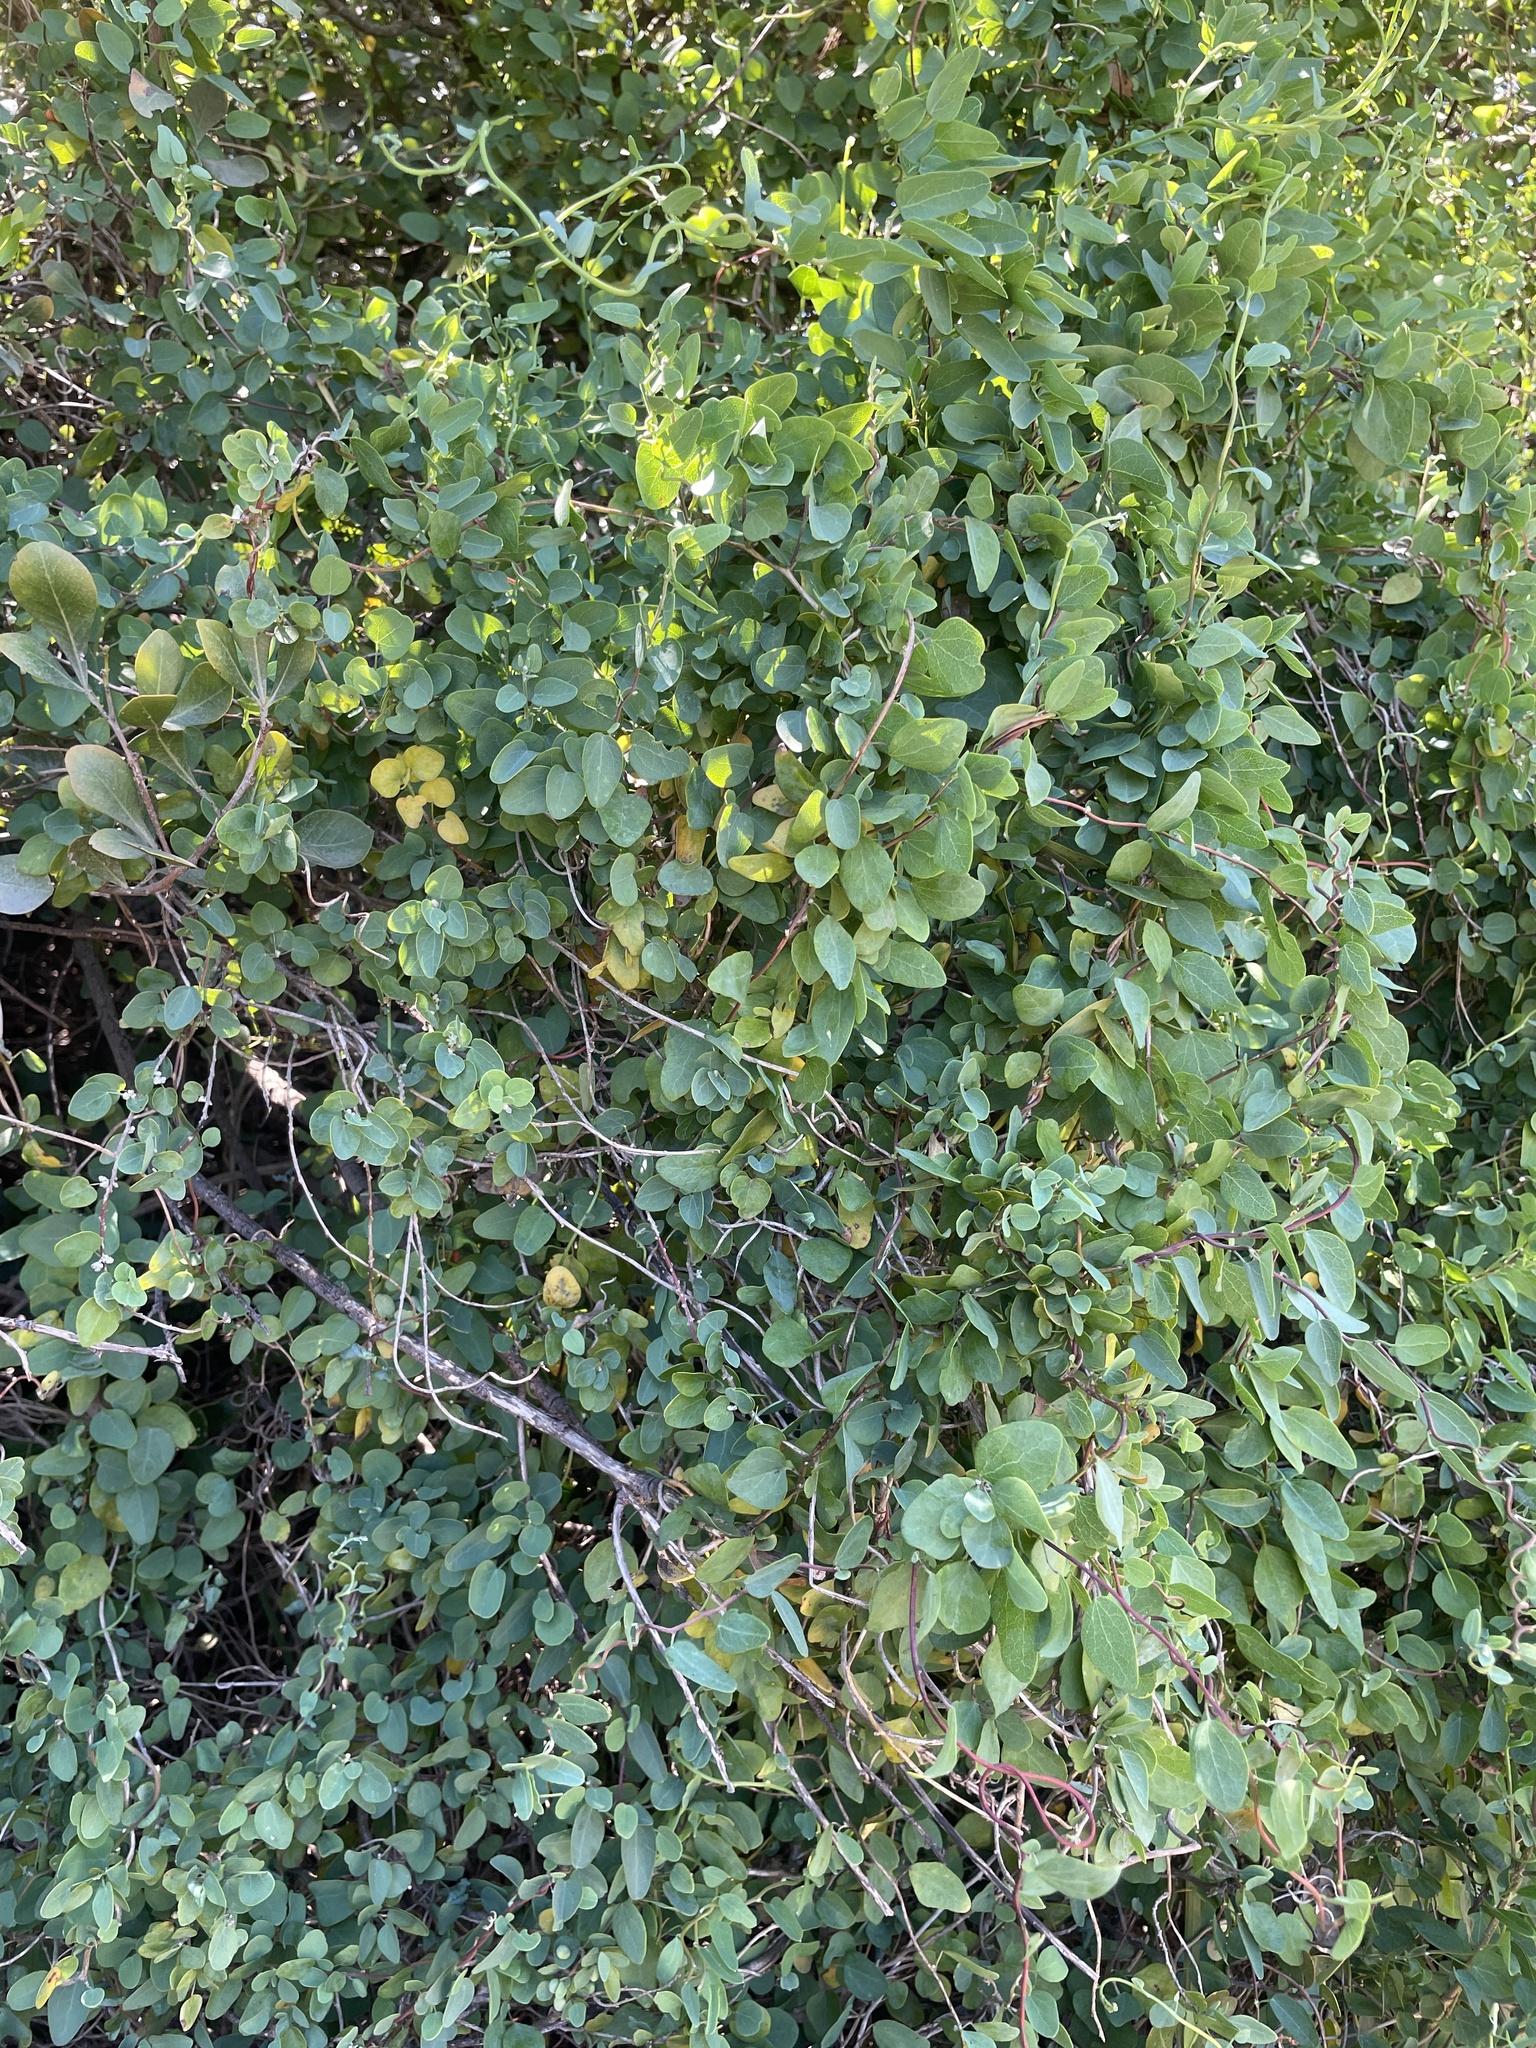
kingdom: Plantae
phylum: Tracheophyta
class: Magnoliopsida
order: Ranunculales
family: Menispermaceae
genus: Cissampelos
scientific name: Cissampelos capensis
